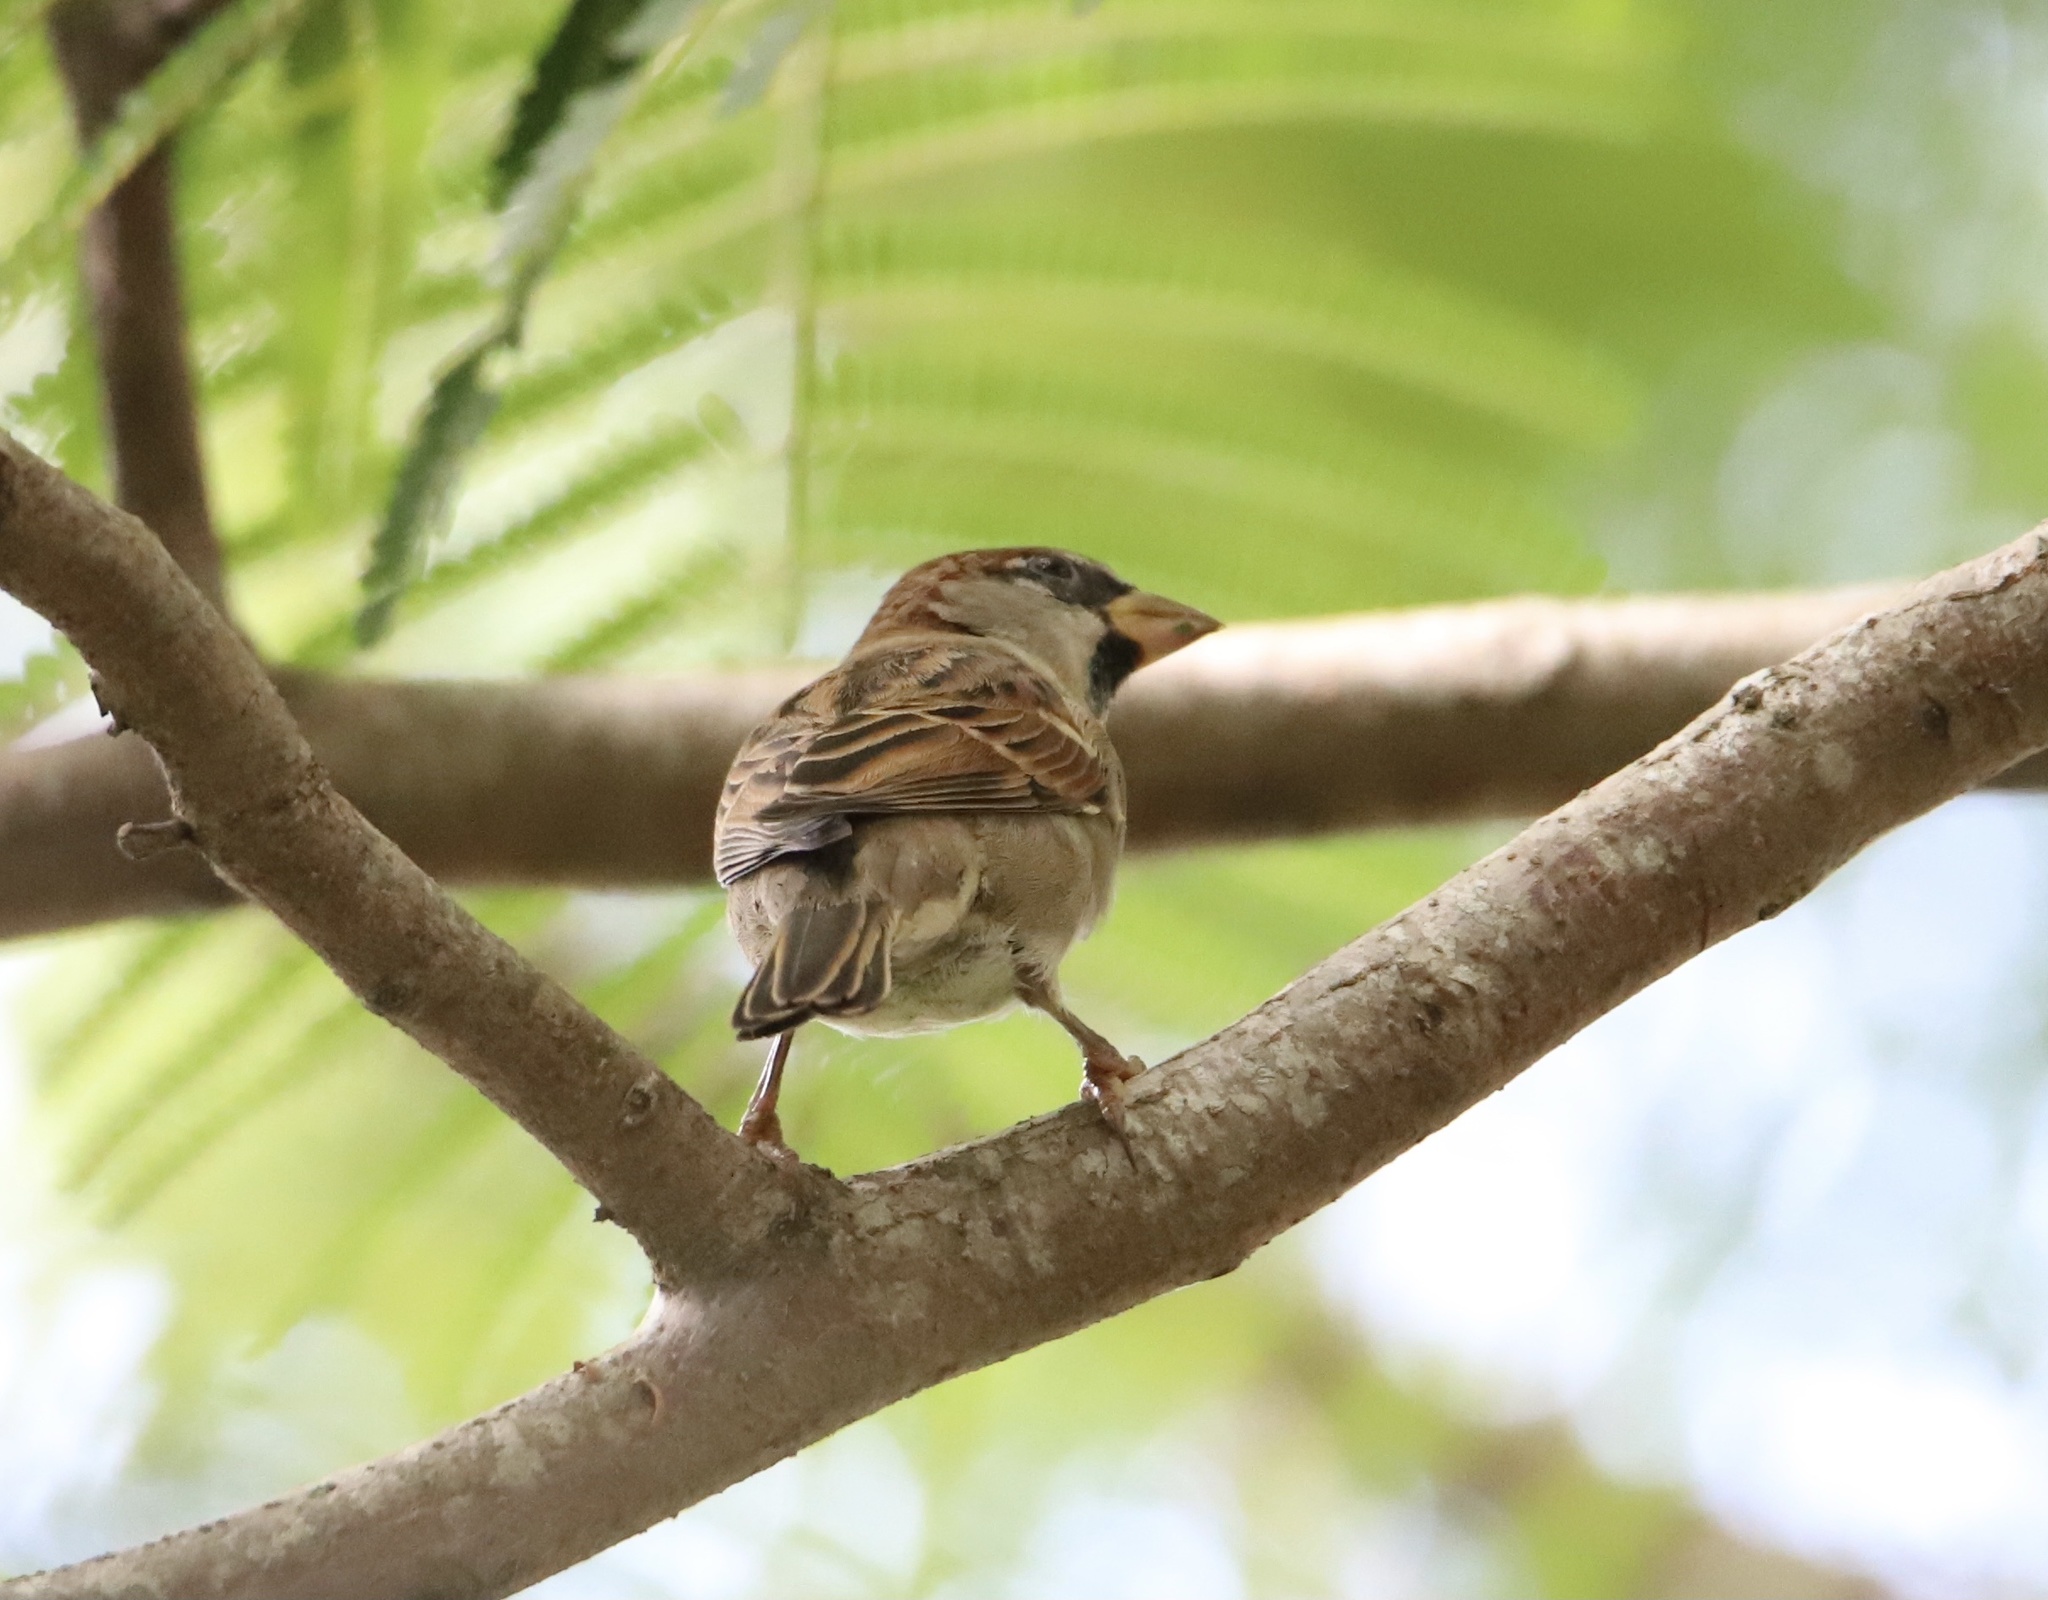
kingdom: Animalia
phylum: Chordata
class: Aves
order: Passeriformes
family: Passeridae
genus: Passer
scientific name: Passer domesticus
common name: House sparrow
